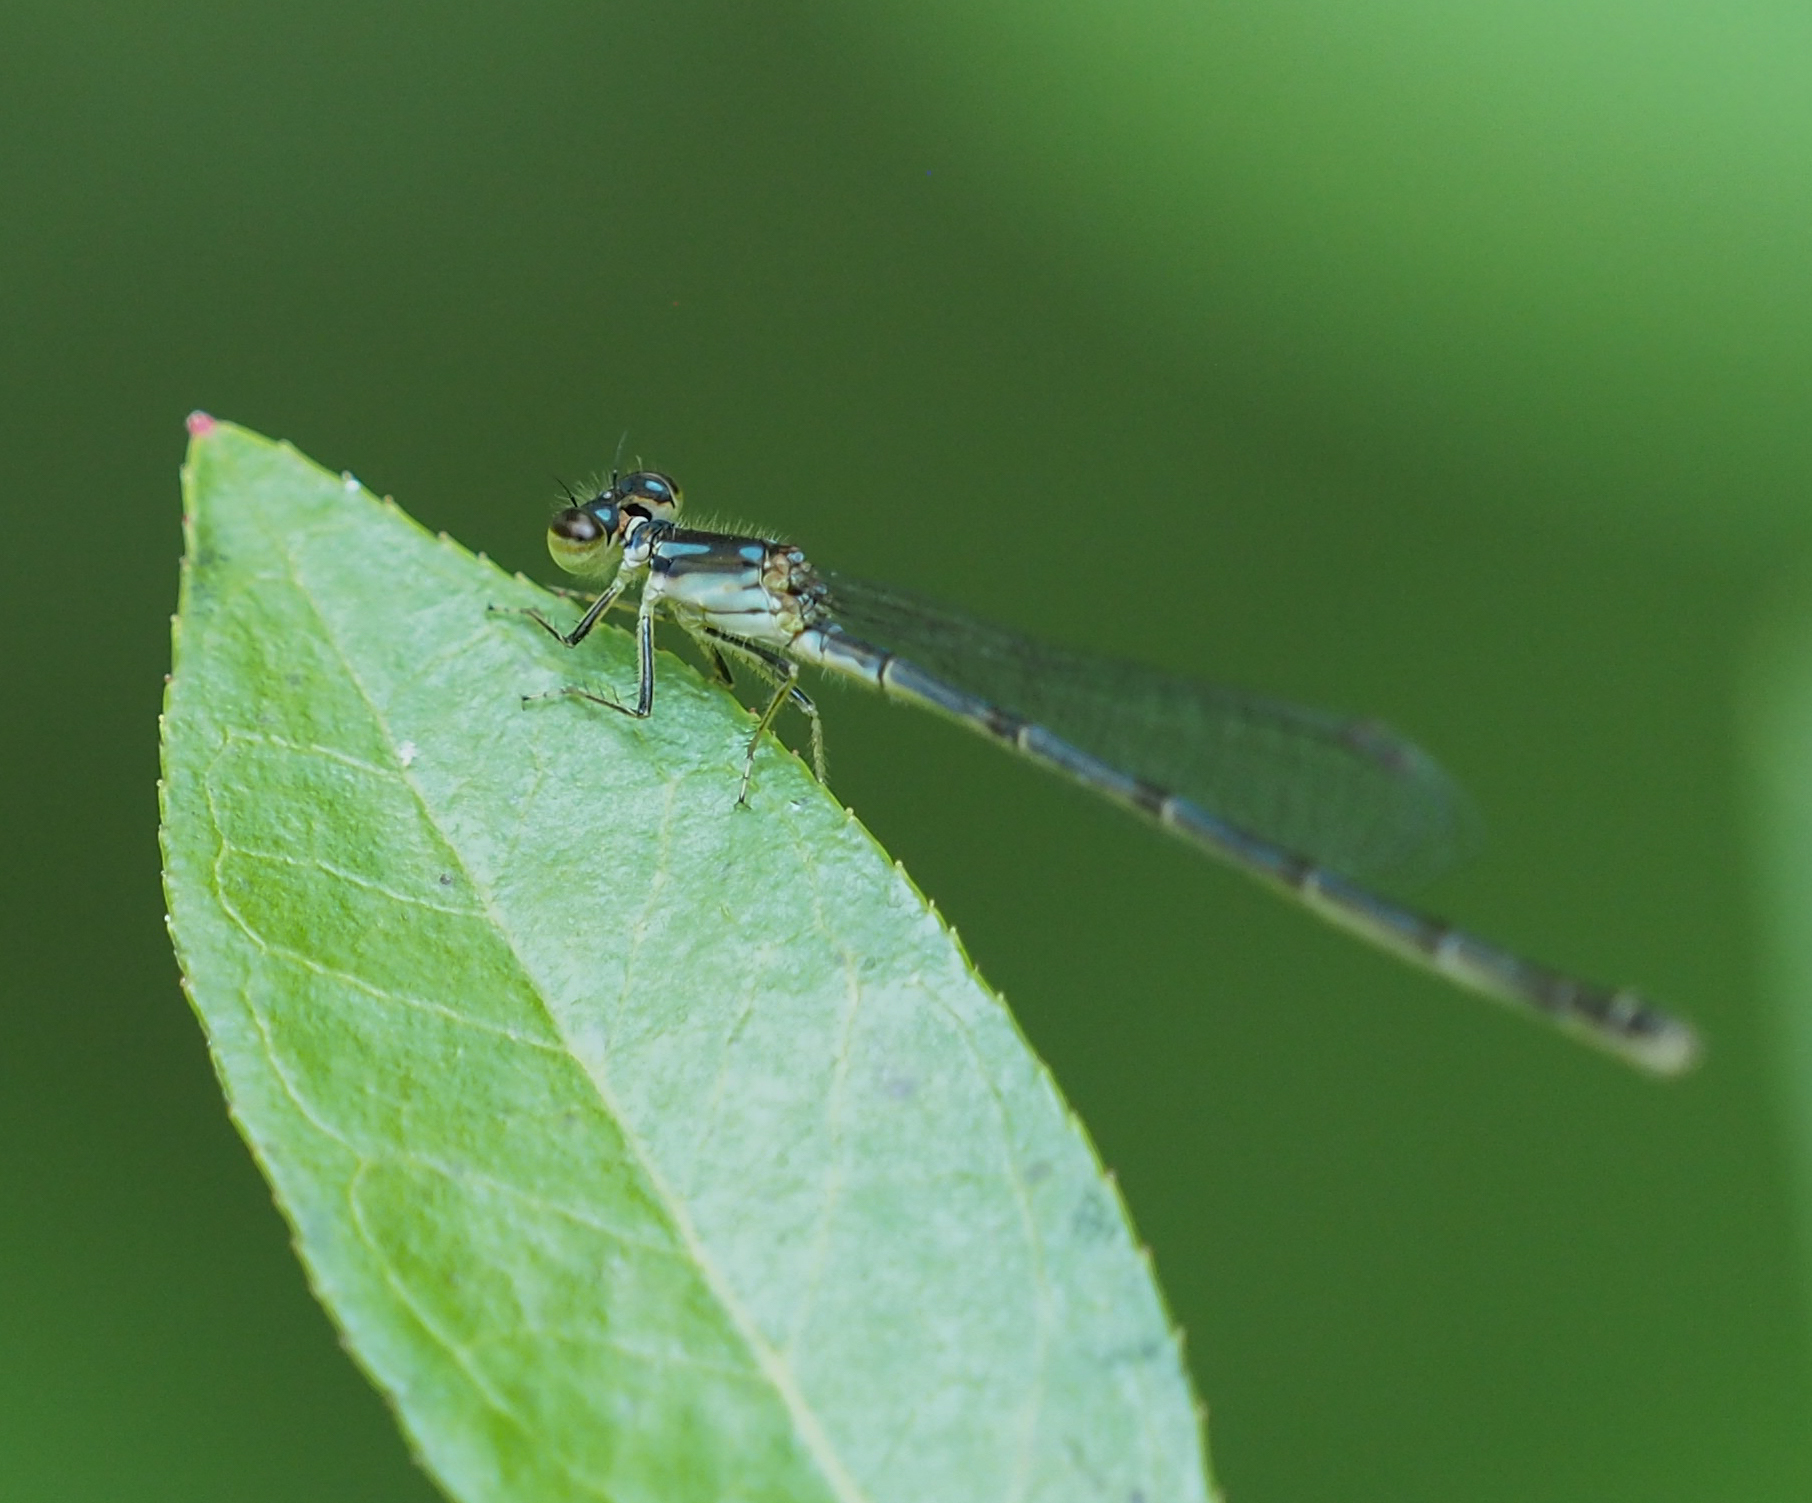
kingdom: Animalia
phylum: Arthropoda
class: Insecta
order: Odonata
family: Coenagrionidae
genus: Ischnura
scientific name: Ischnura posita
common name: Fragile forktail
